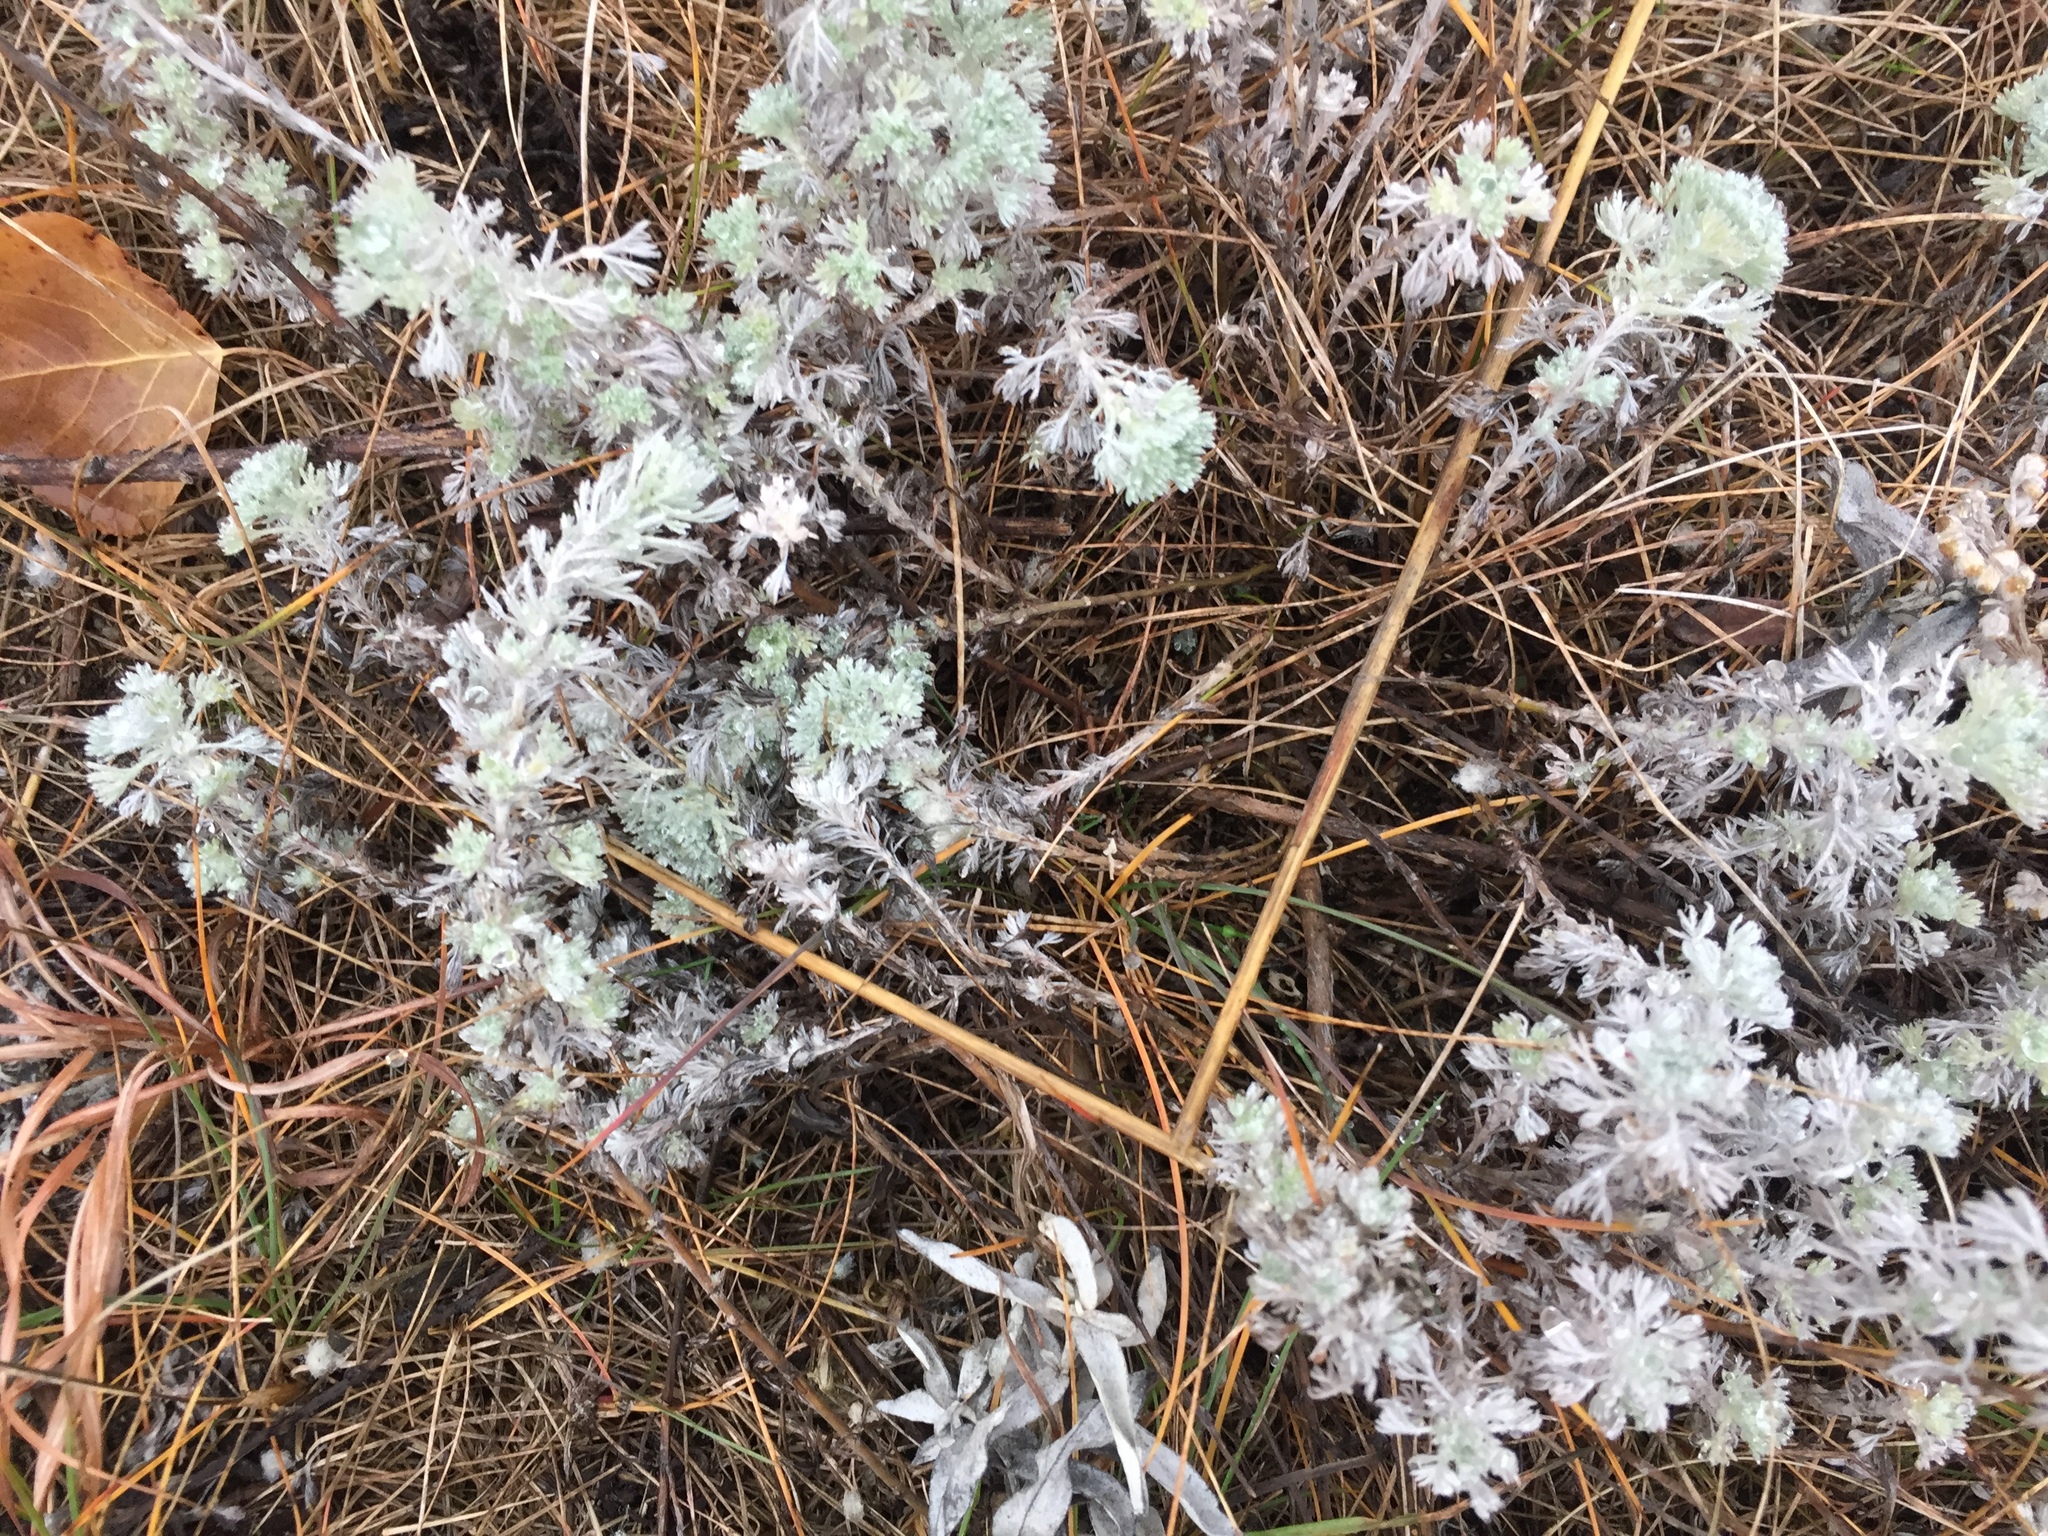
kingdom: Plantae
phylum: Tracheophyta
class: Magnoliopsida
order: Asterales
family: Asteraceae
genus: Artemisia
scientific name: Artemisia frigida
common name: Prairie sagewort
